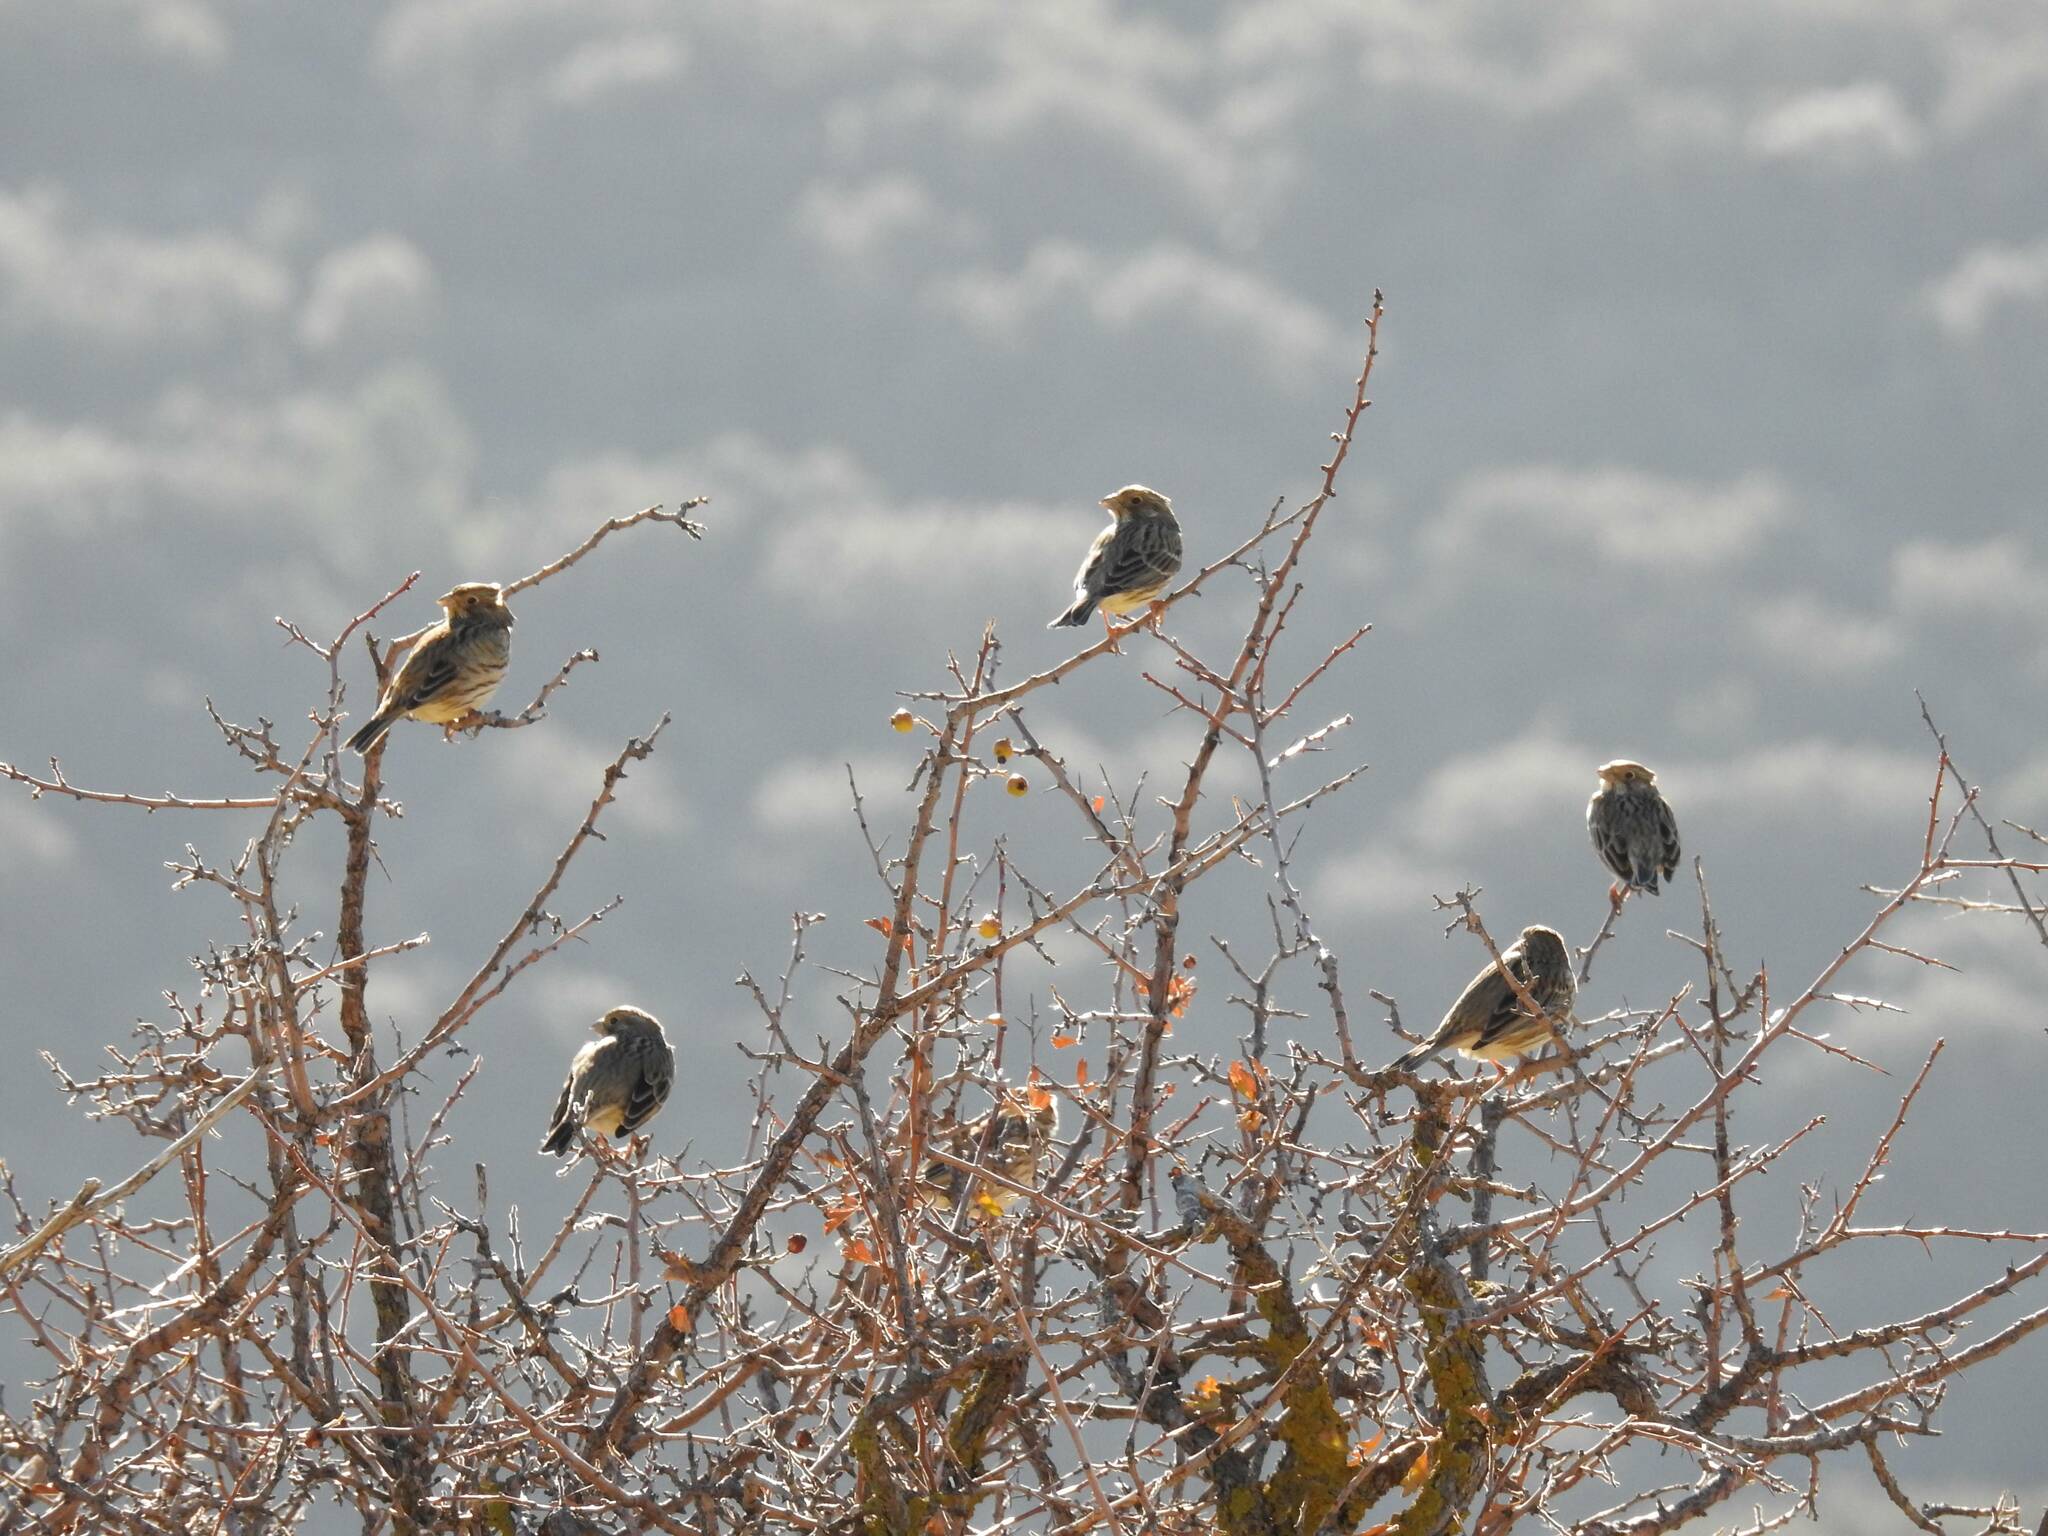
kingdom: Animalia
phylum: Chordata
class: Aves
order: Passeriformes
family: Emberizidae
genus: Emberiza
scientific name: Emberiza calandra
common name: Corn bunting
